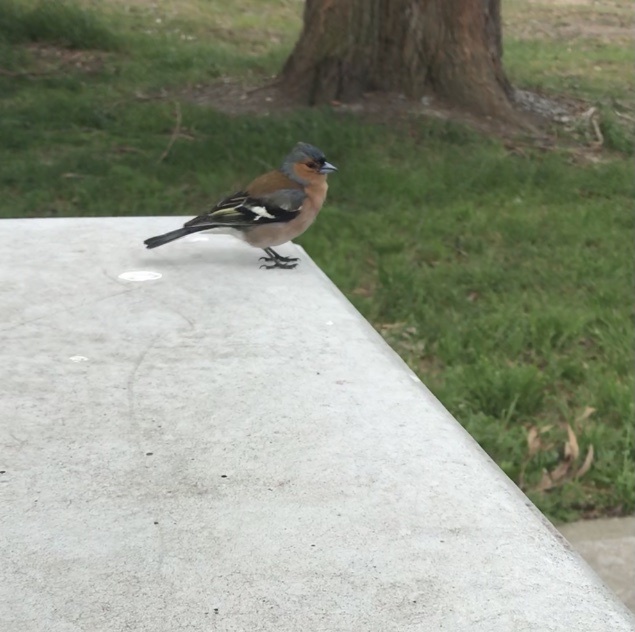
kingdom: Animalia
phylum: Chordata
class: Aves
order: Passeriformes
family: Fringillidae
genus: Fringilla
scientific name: Fringilla coelebs
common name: Common chaffinch
